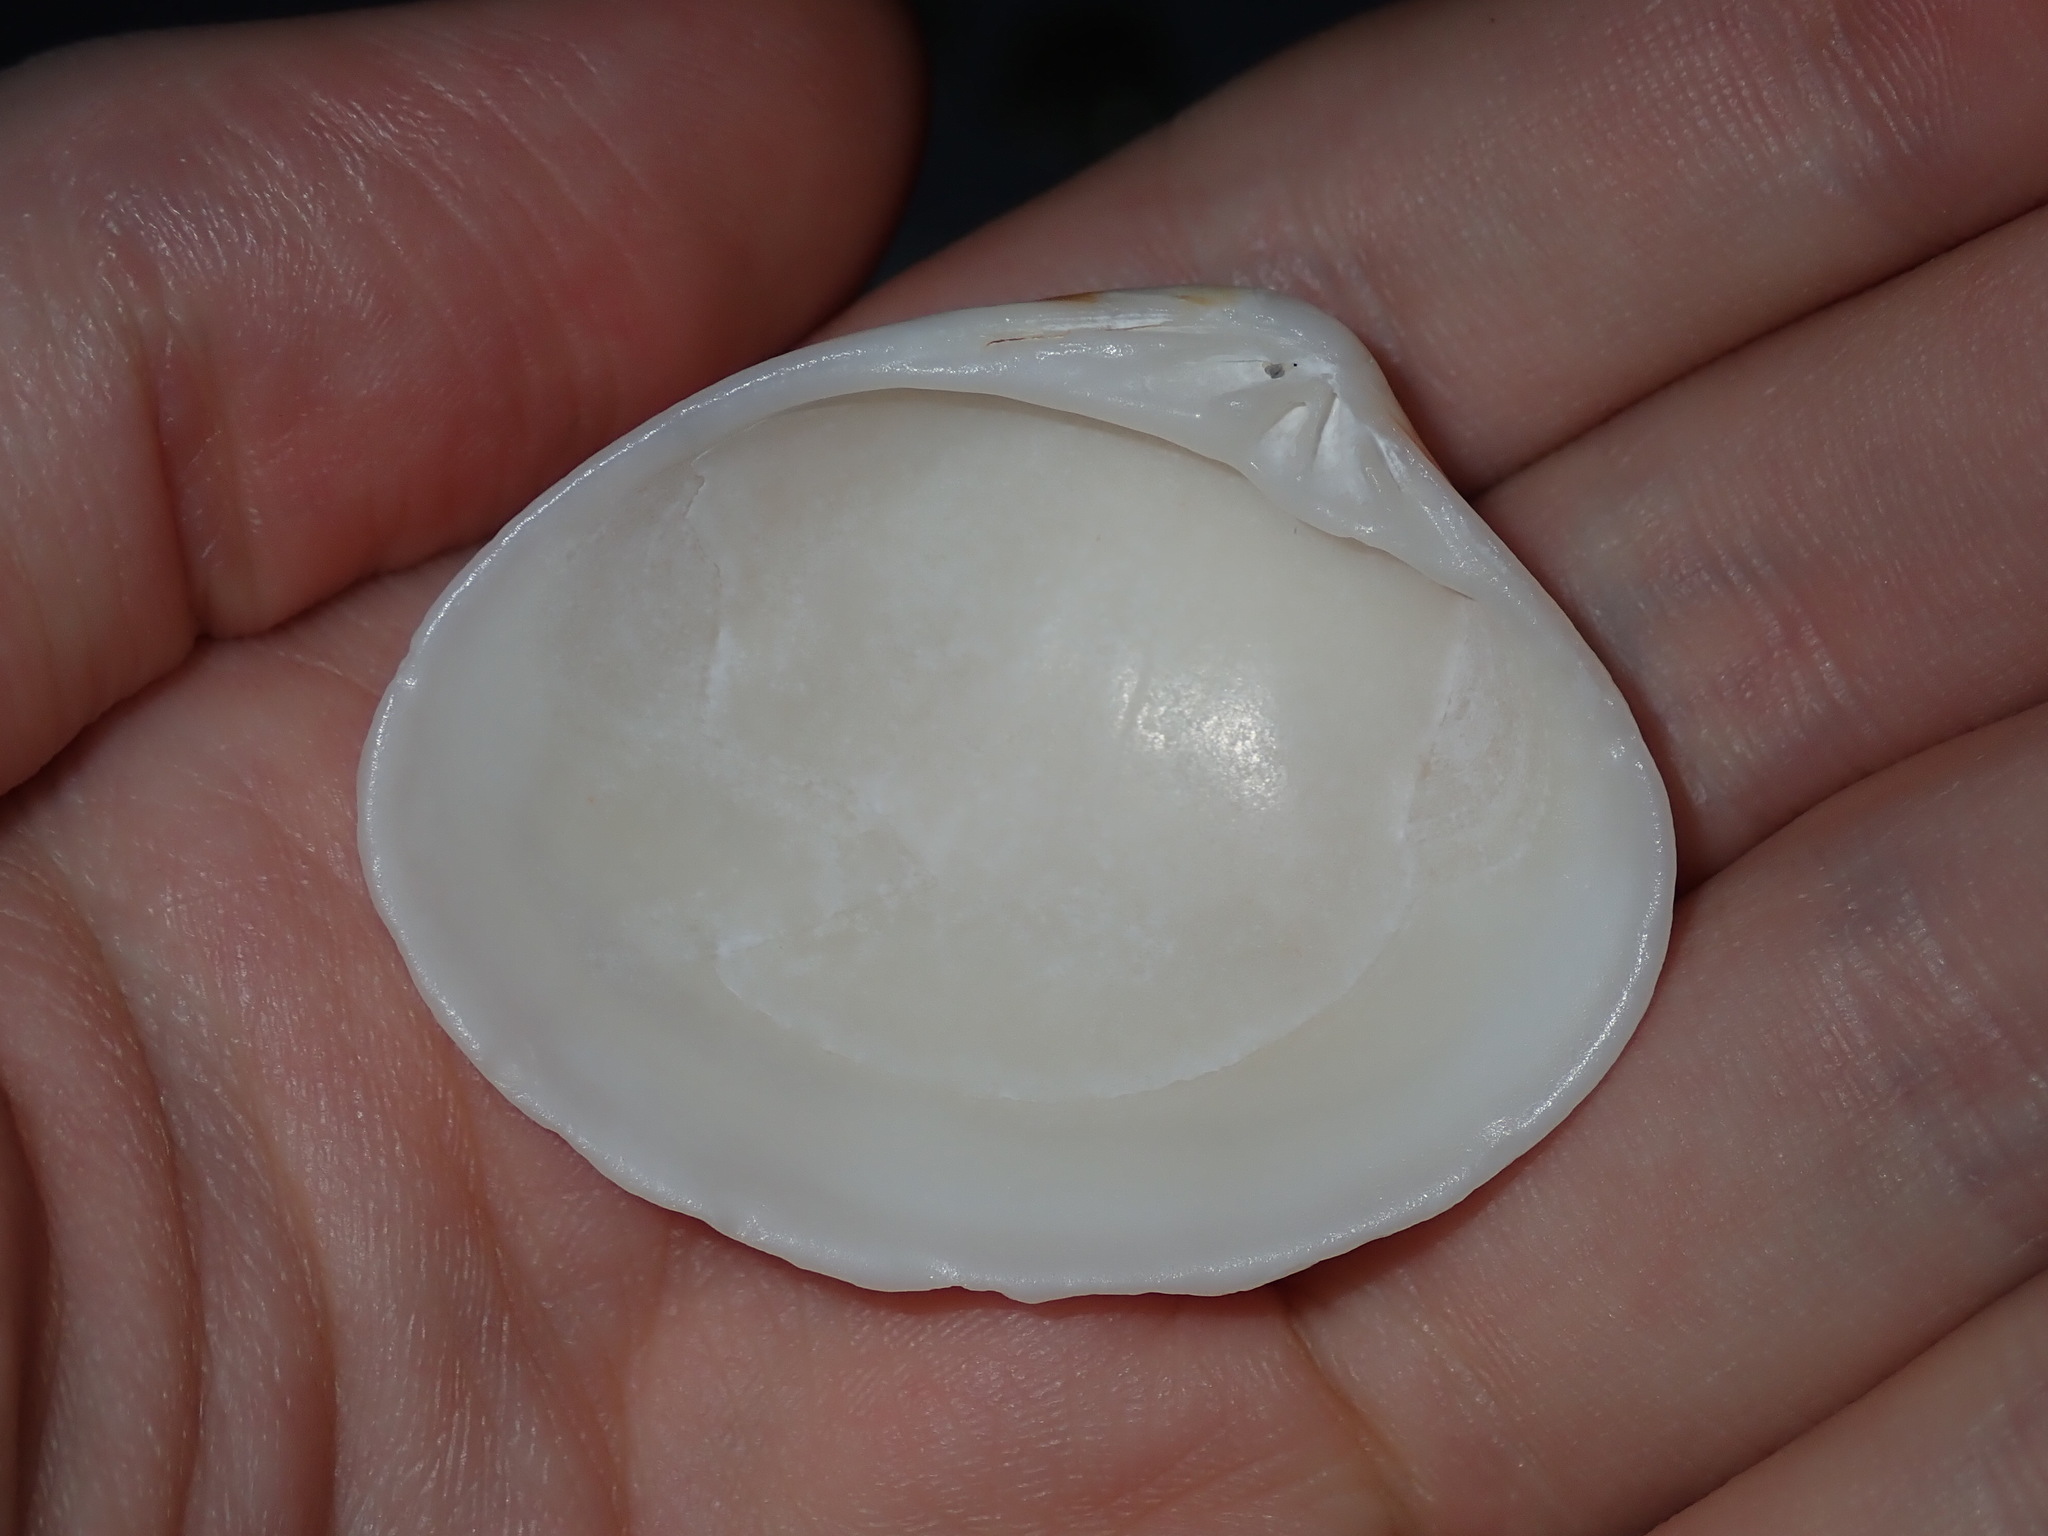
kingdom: Animalia
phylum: Mollusca
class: Bivalvia
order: Venerida
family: Veneridae
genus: Notocallista
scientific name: Notocallista diemenensis
